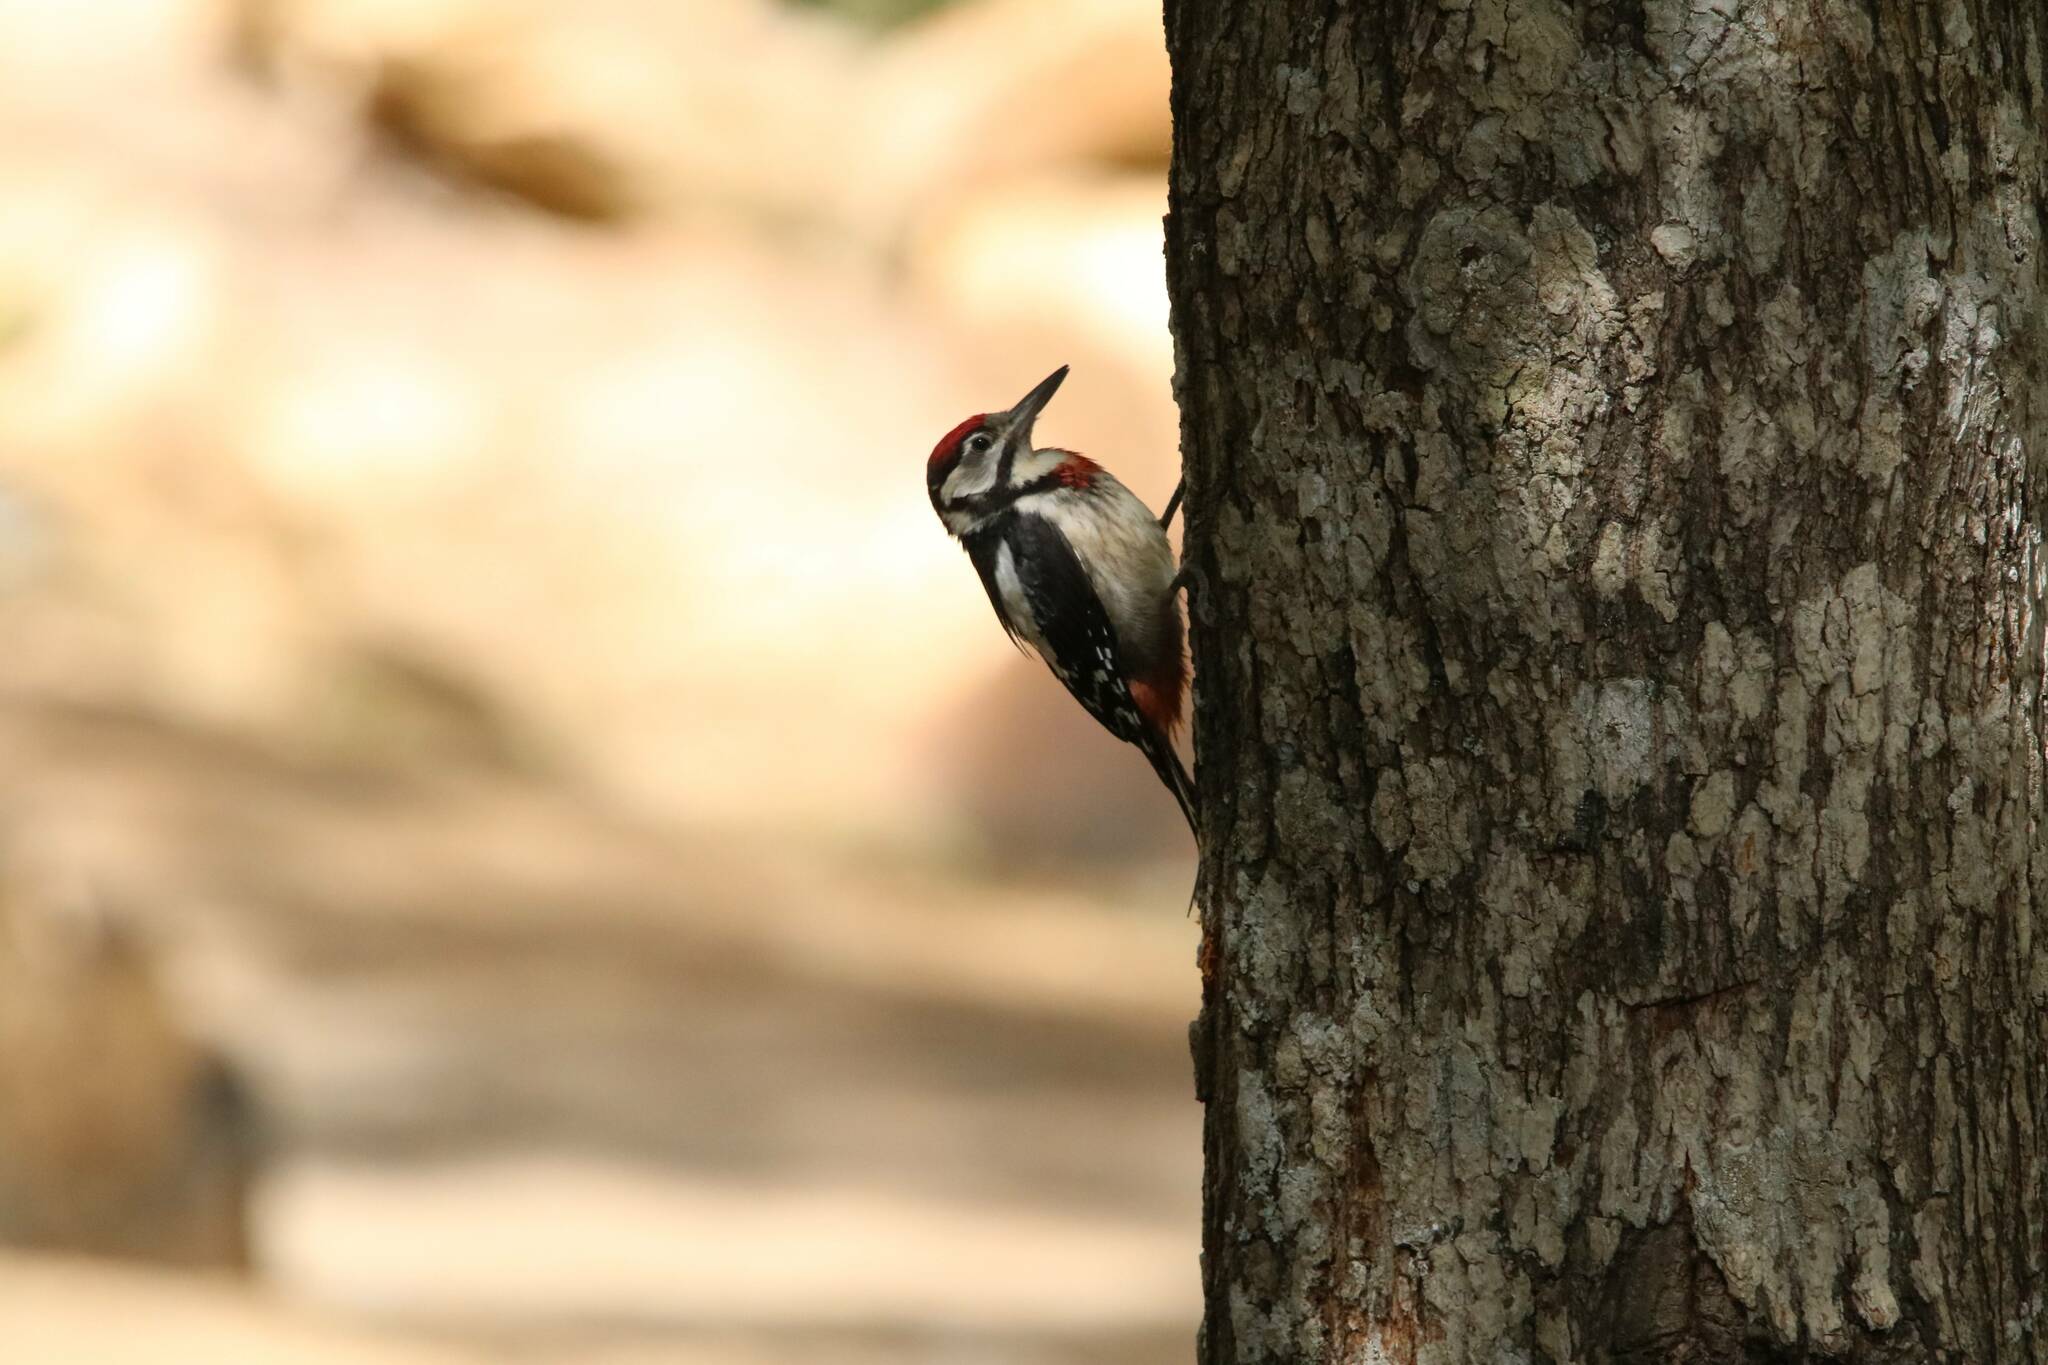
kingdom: Animalia
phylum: Chordata
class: Aves
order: Piciformes
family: Picidae
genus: Dendrocopos
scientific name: Dendrocopos major
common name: Great spotted woodpecker
